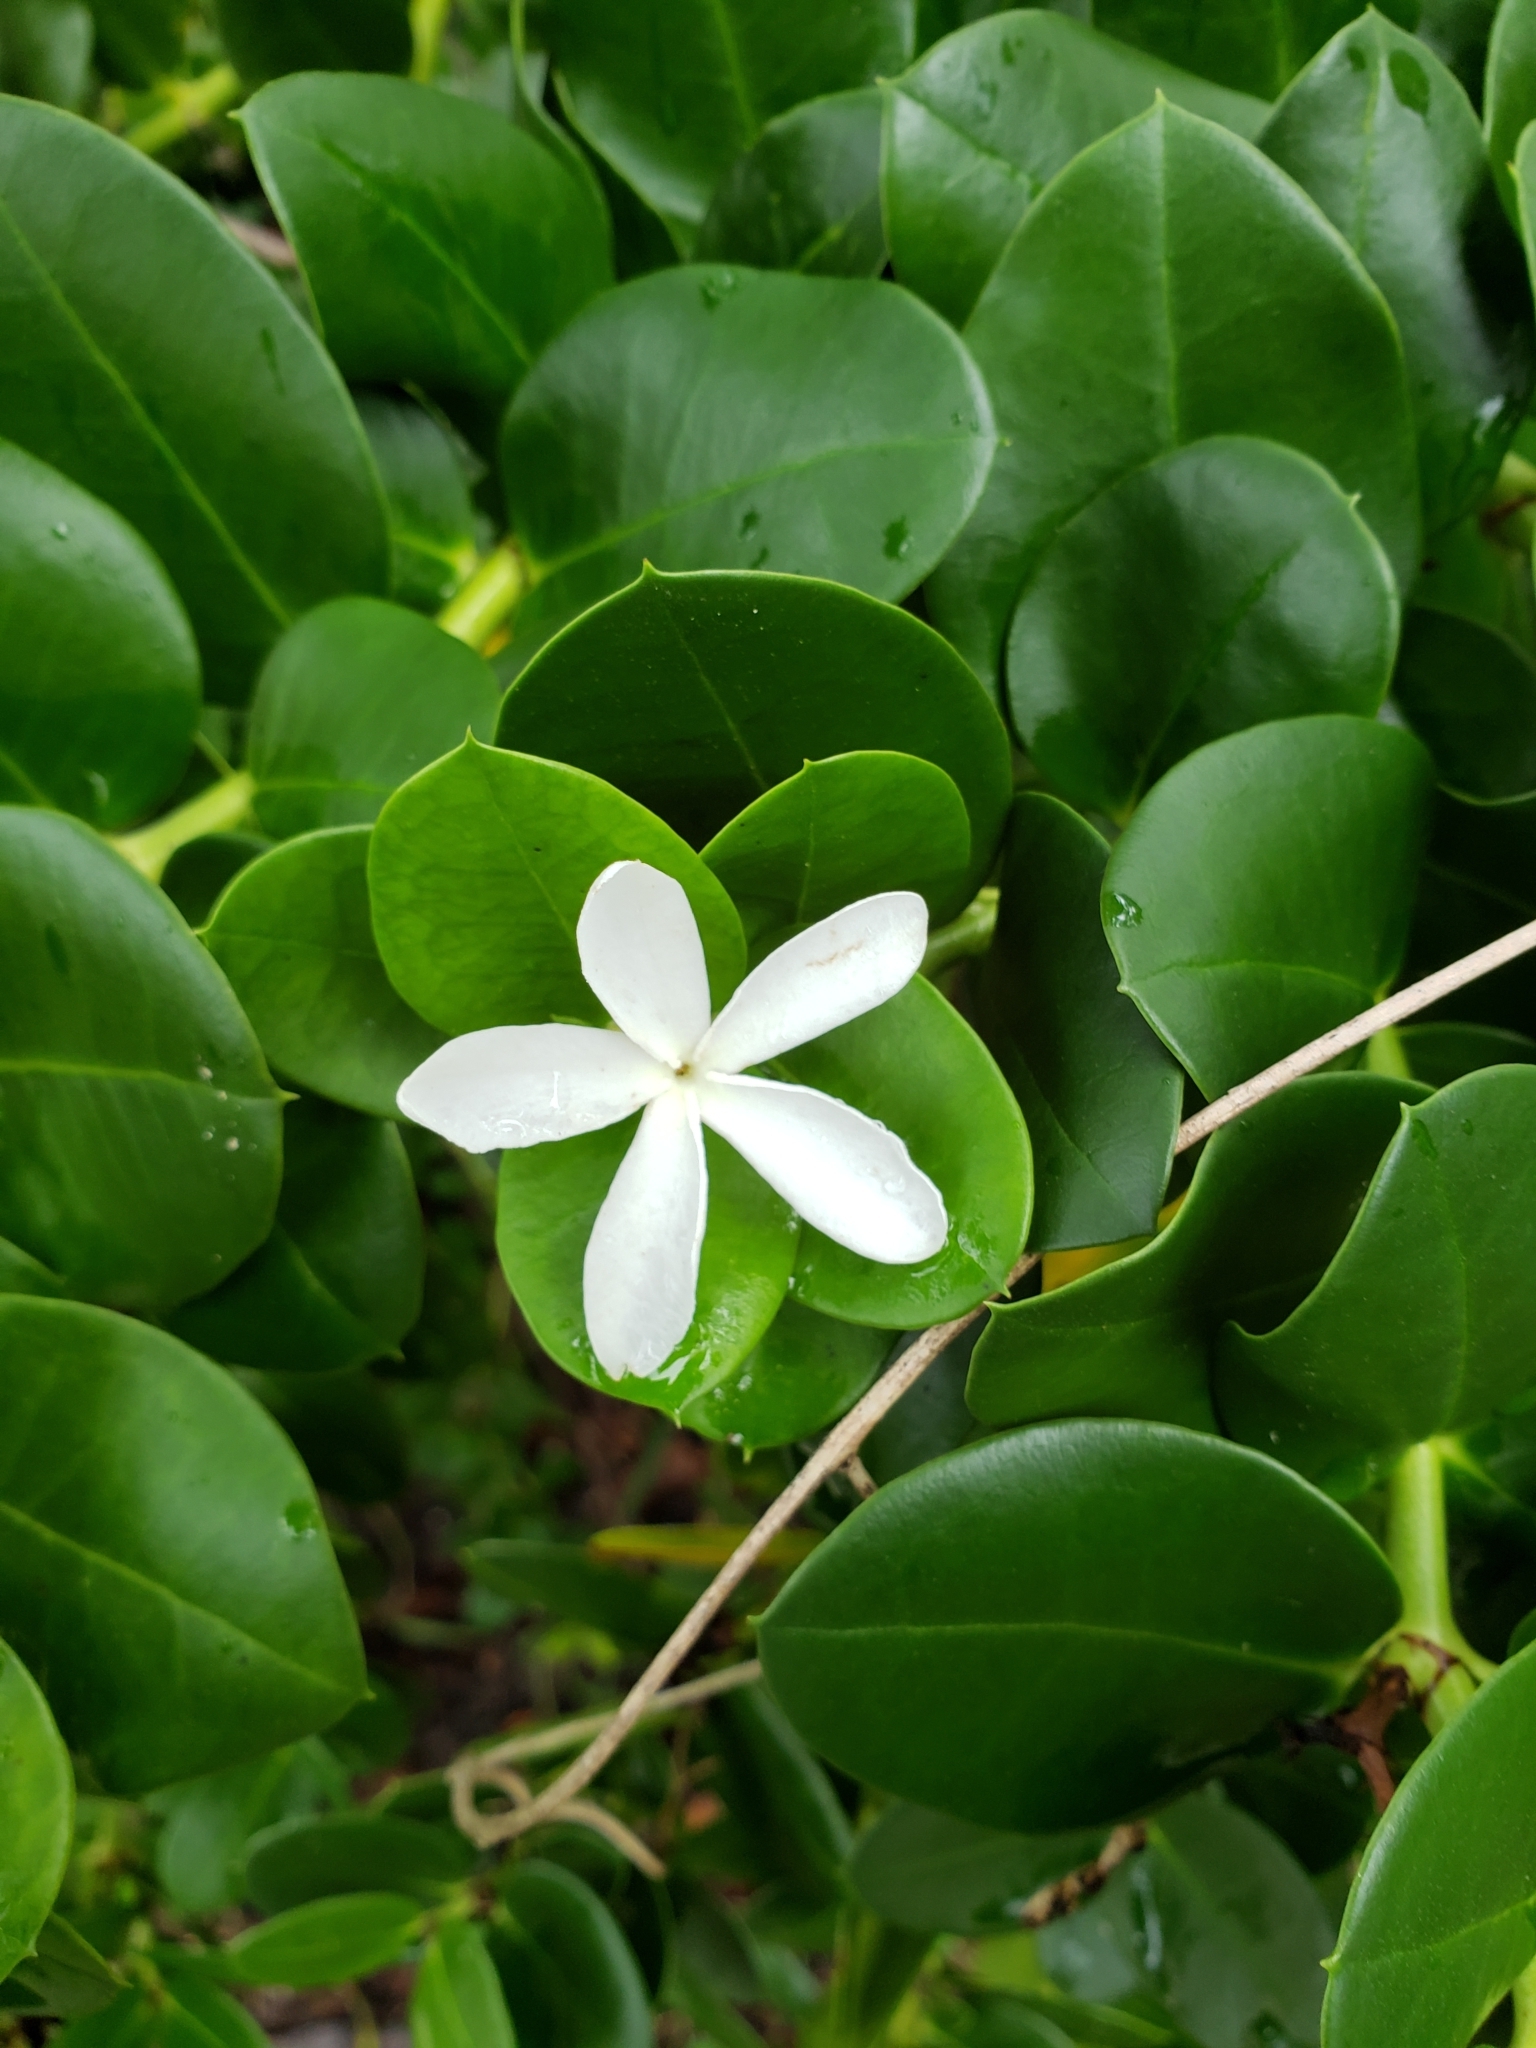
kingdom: Plantae
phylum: Tracheophyta
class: Magnoliopsida
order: Gentianales
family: Apocynaceae
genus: Carissa
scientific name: Carissa macrocarpa
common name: Natal plum
